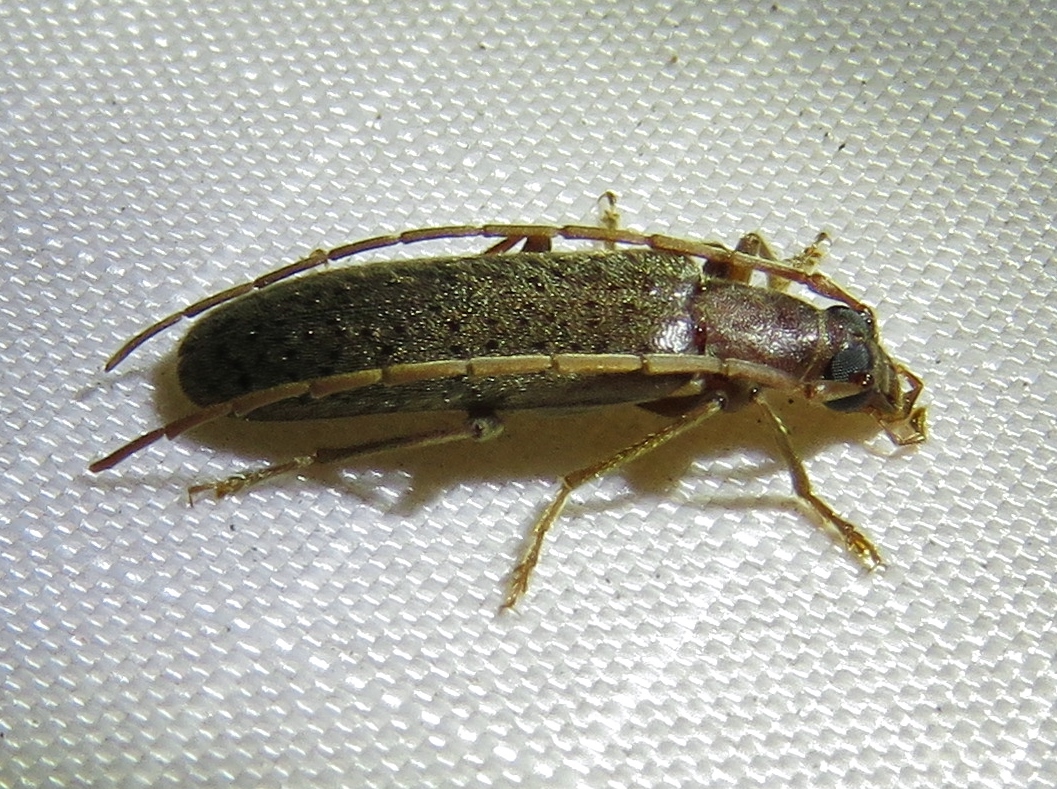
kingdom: Animalia
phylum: Arthropoda
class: Insecta
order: Coleoptera
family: Oedemeridae
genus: Sparedrus
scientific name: Sparedrus aspersus
